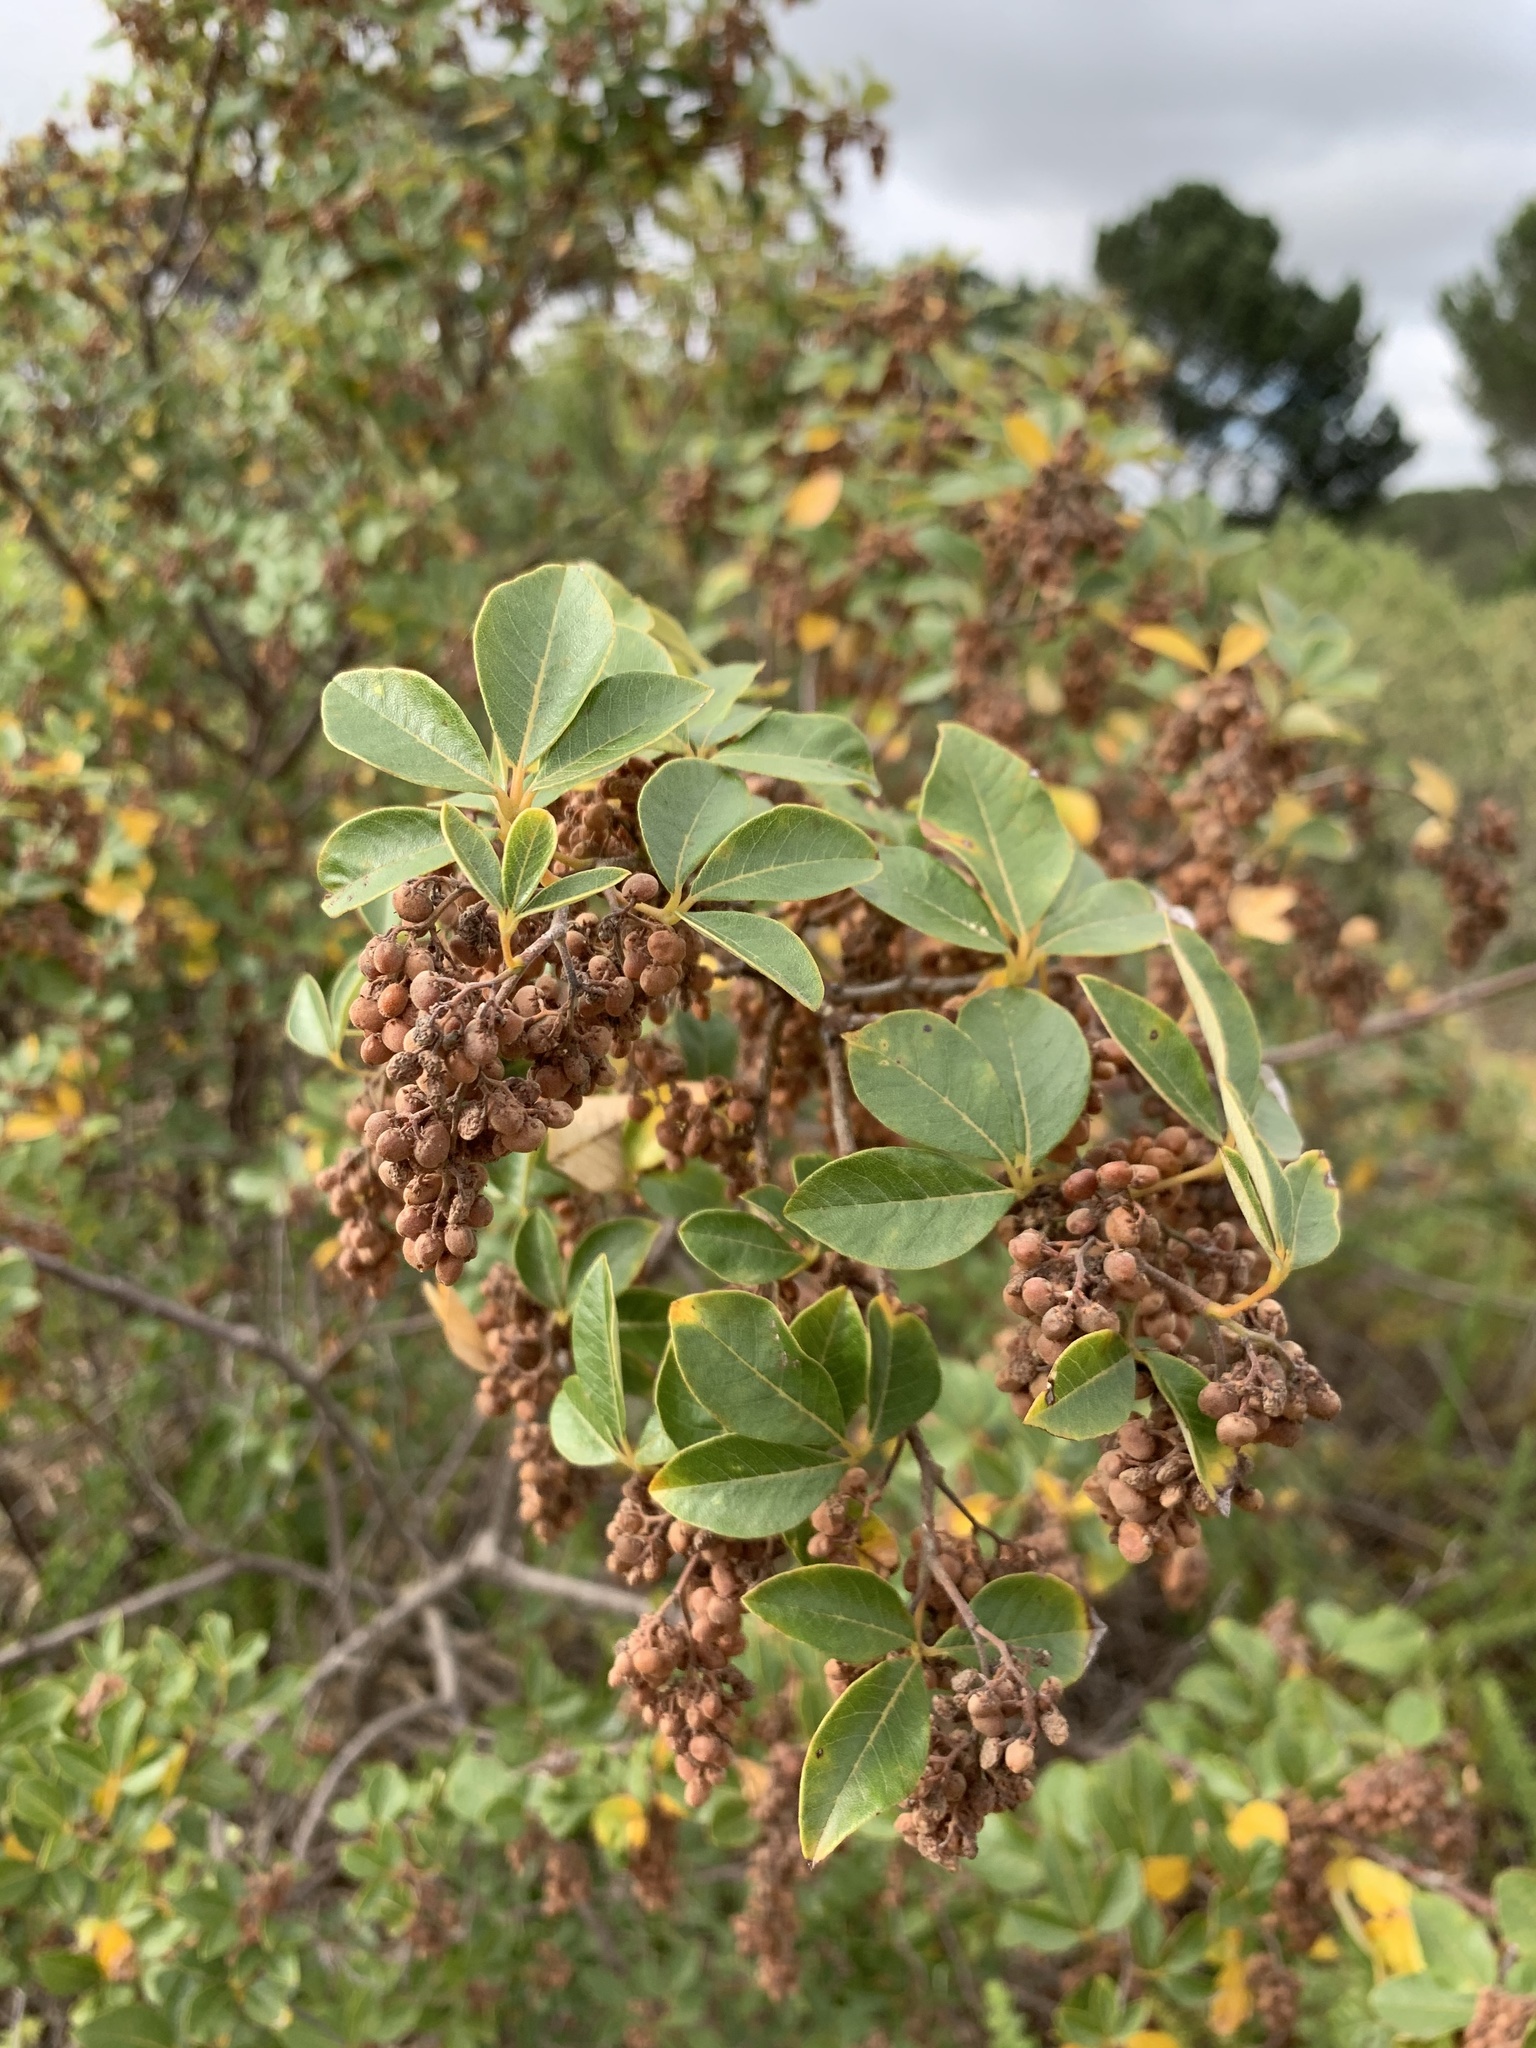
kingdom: Plantae
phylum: Tracheophyta
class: Magnoliopsida
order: Sapindales
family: Anacardiaceae
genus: Searsia
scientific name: Searsia tomentosa
